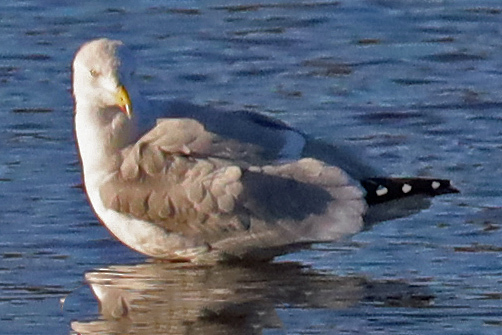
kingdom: Animalia
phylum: Chordata
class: Aves
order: Charadriiformes
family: Laridae
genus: Larus
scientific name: Larus argentatus
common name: Herring gull
